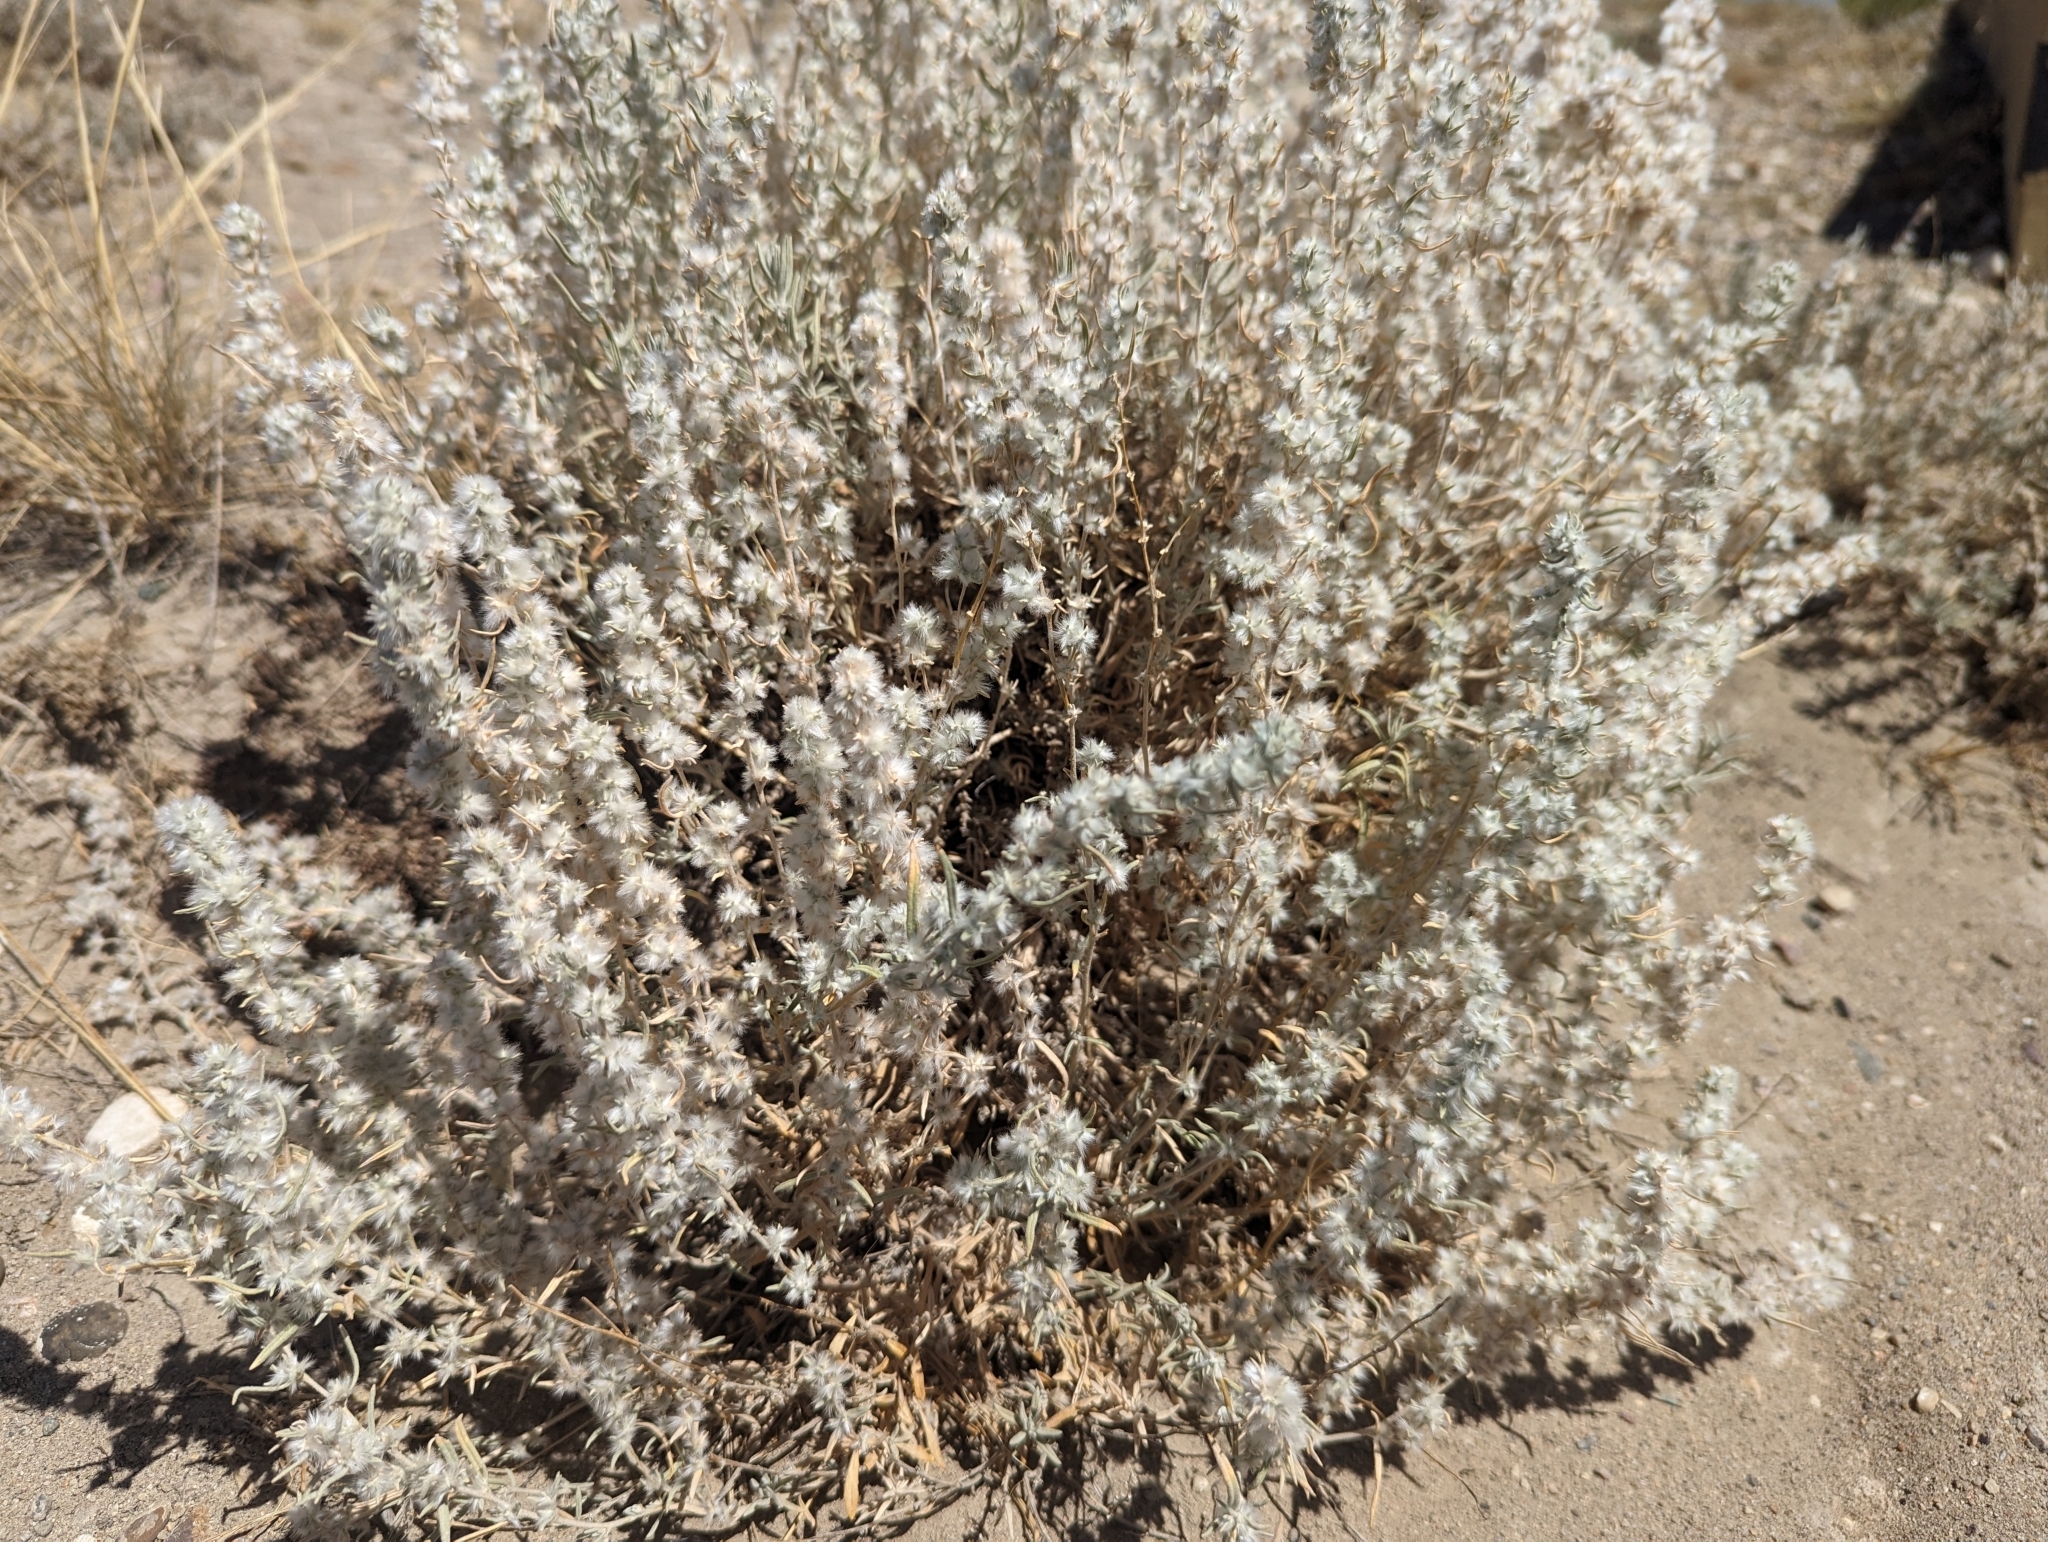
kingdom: Plantae
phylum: Tracheophyta
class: Magnoliopsida
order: Caryophyllales
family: Amaranthaceae
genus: Krascheninnikovia
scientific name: Krascheninnikovia lanata
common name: Winterfat
